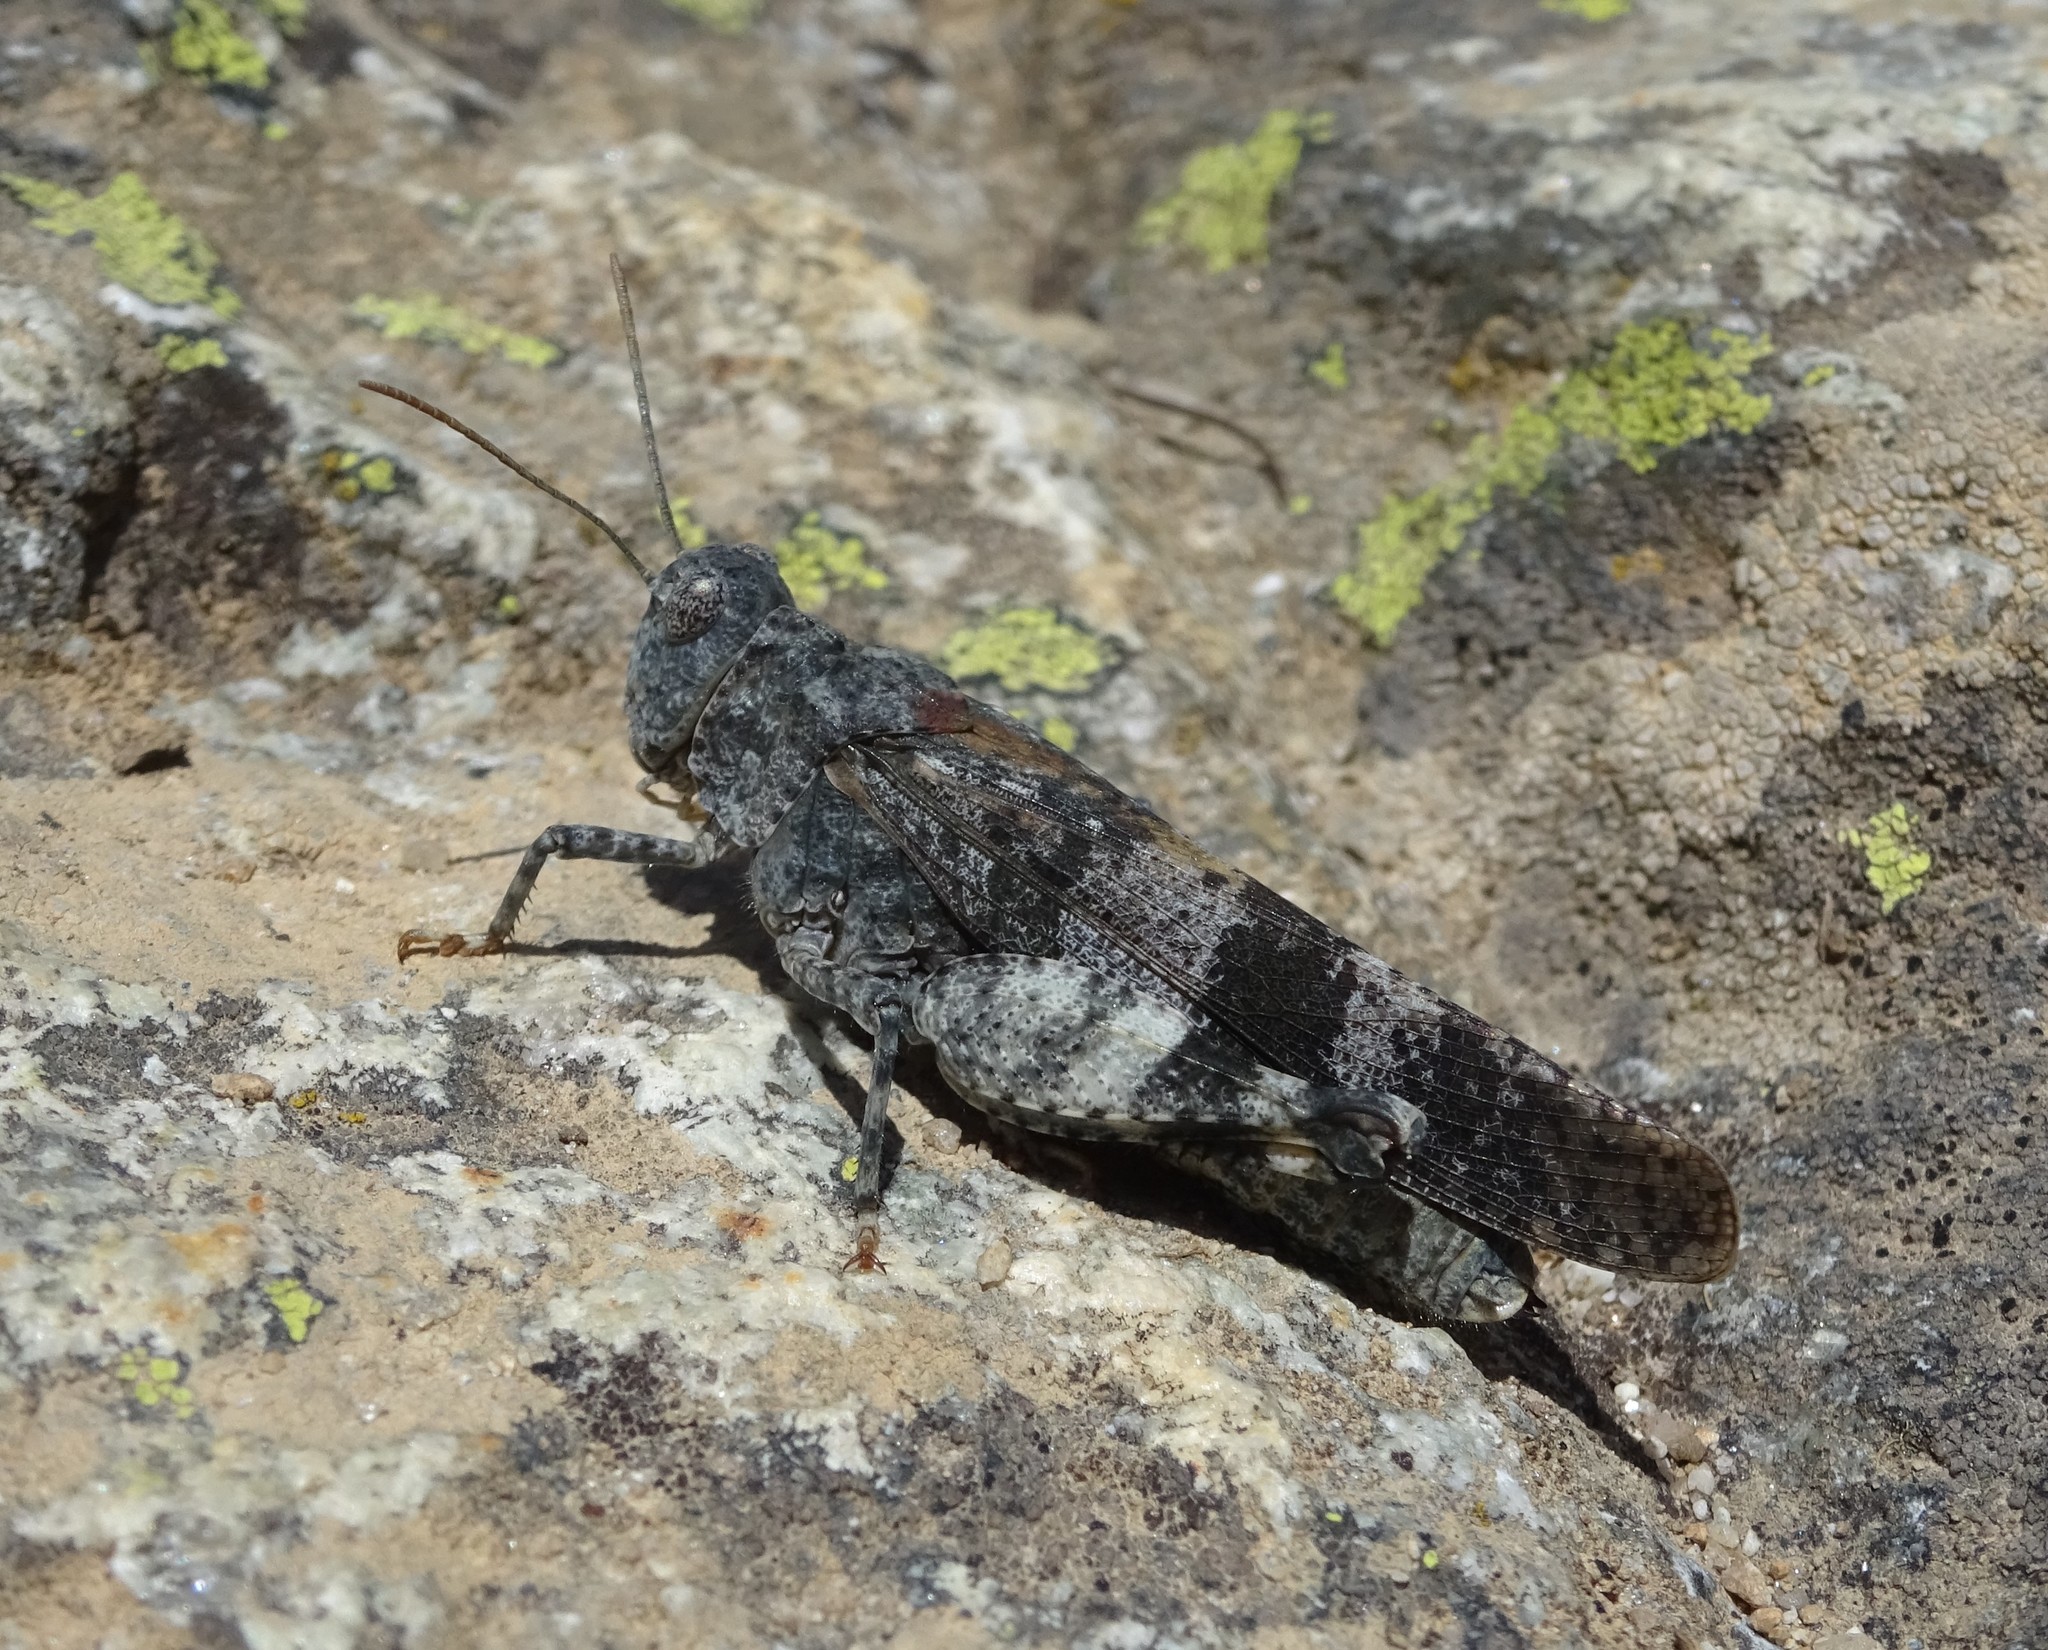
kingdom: Animalia
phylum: Arthropoda
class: Insecta
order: Orthoptera
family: Acrididae
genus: Oedipoda
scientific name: Oedipoda germanica
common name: Red band-winged grasshopper
